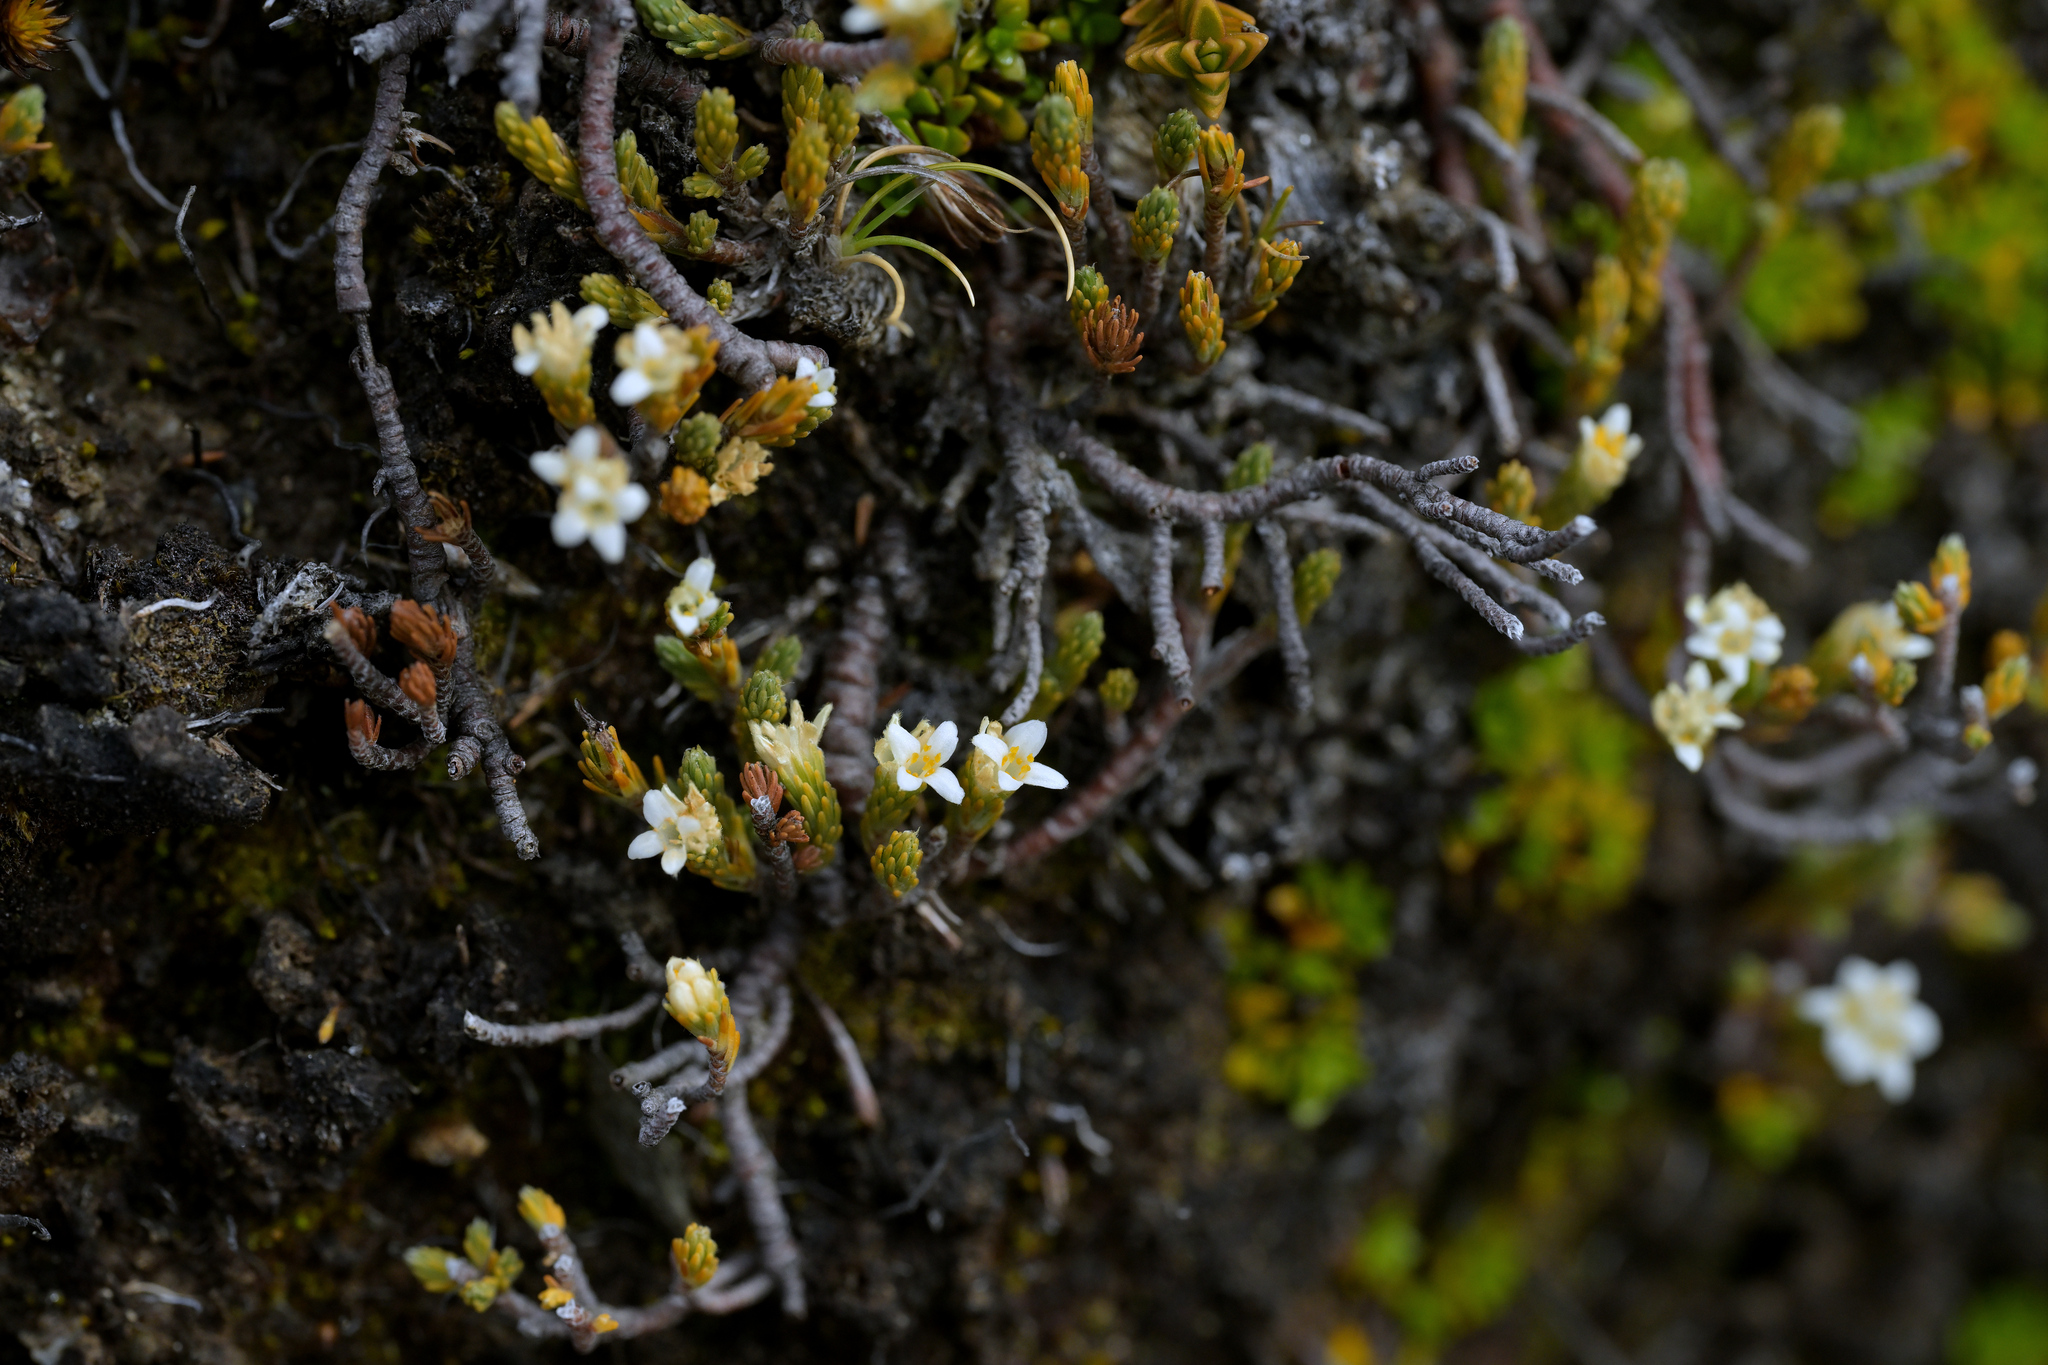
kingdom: Plantae
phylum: Tracheophyta
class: Magnoliopsida
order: Malvales
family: Thymelaeaceae
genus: Kelleria
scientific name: Kelleria dieffenbachii
